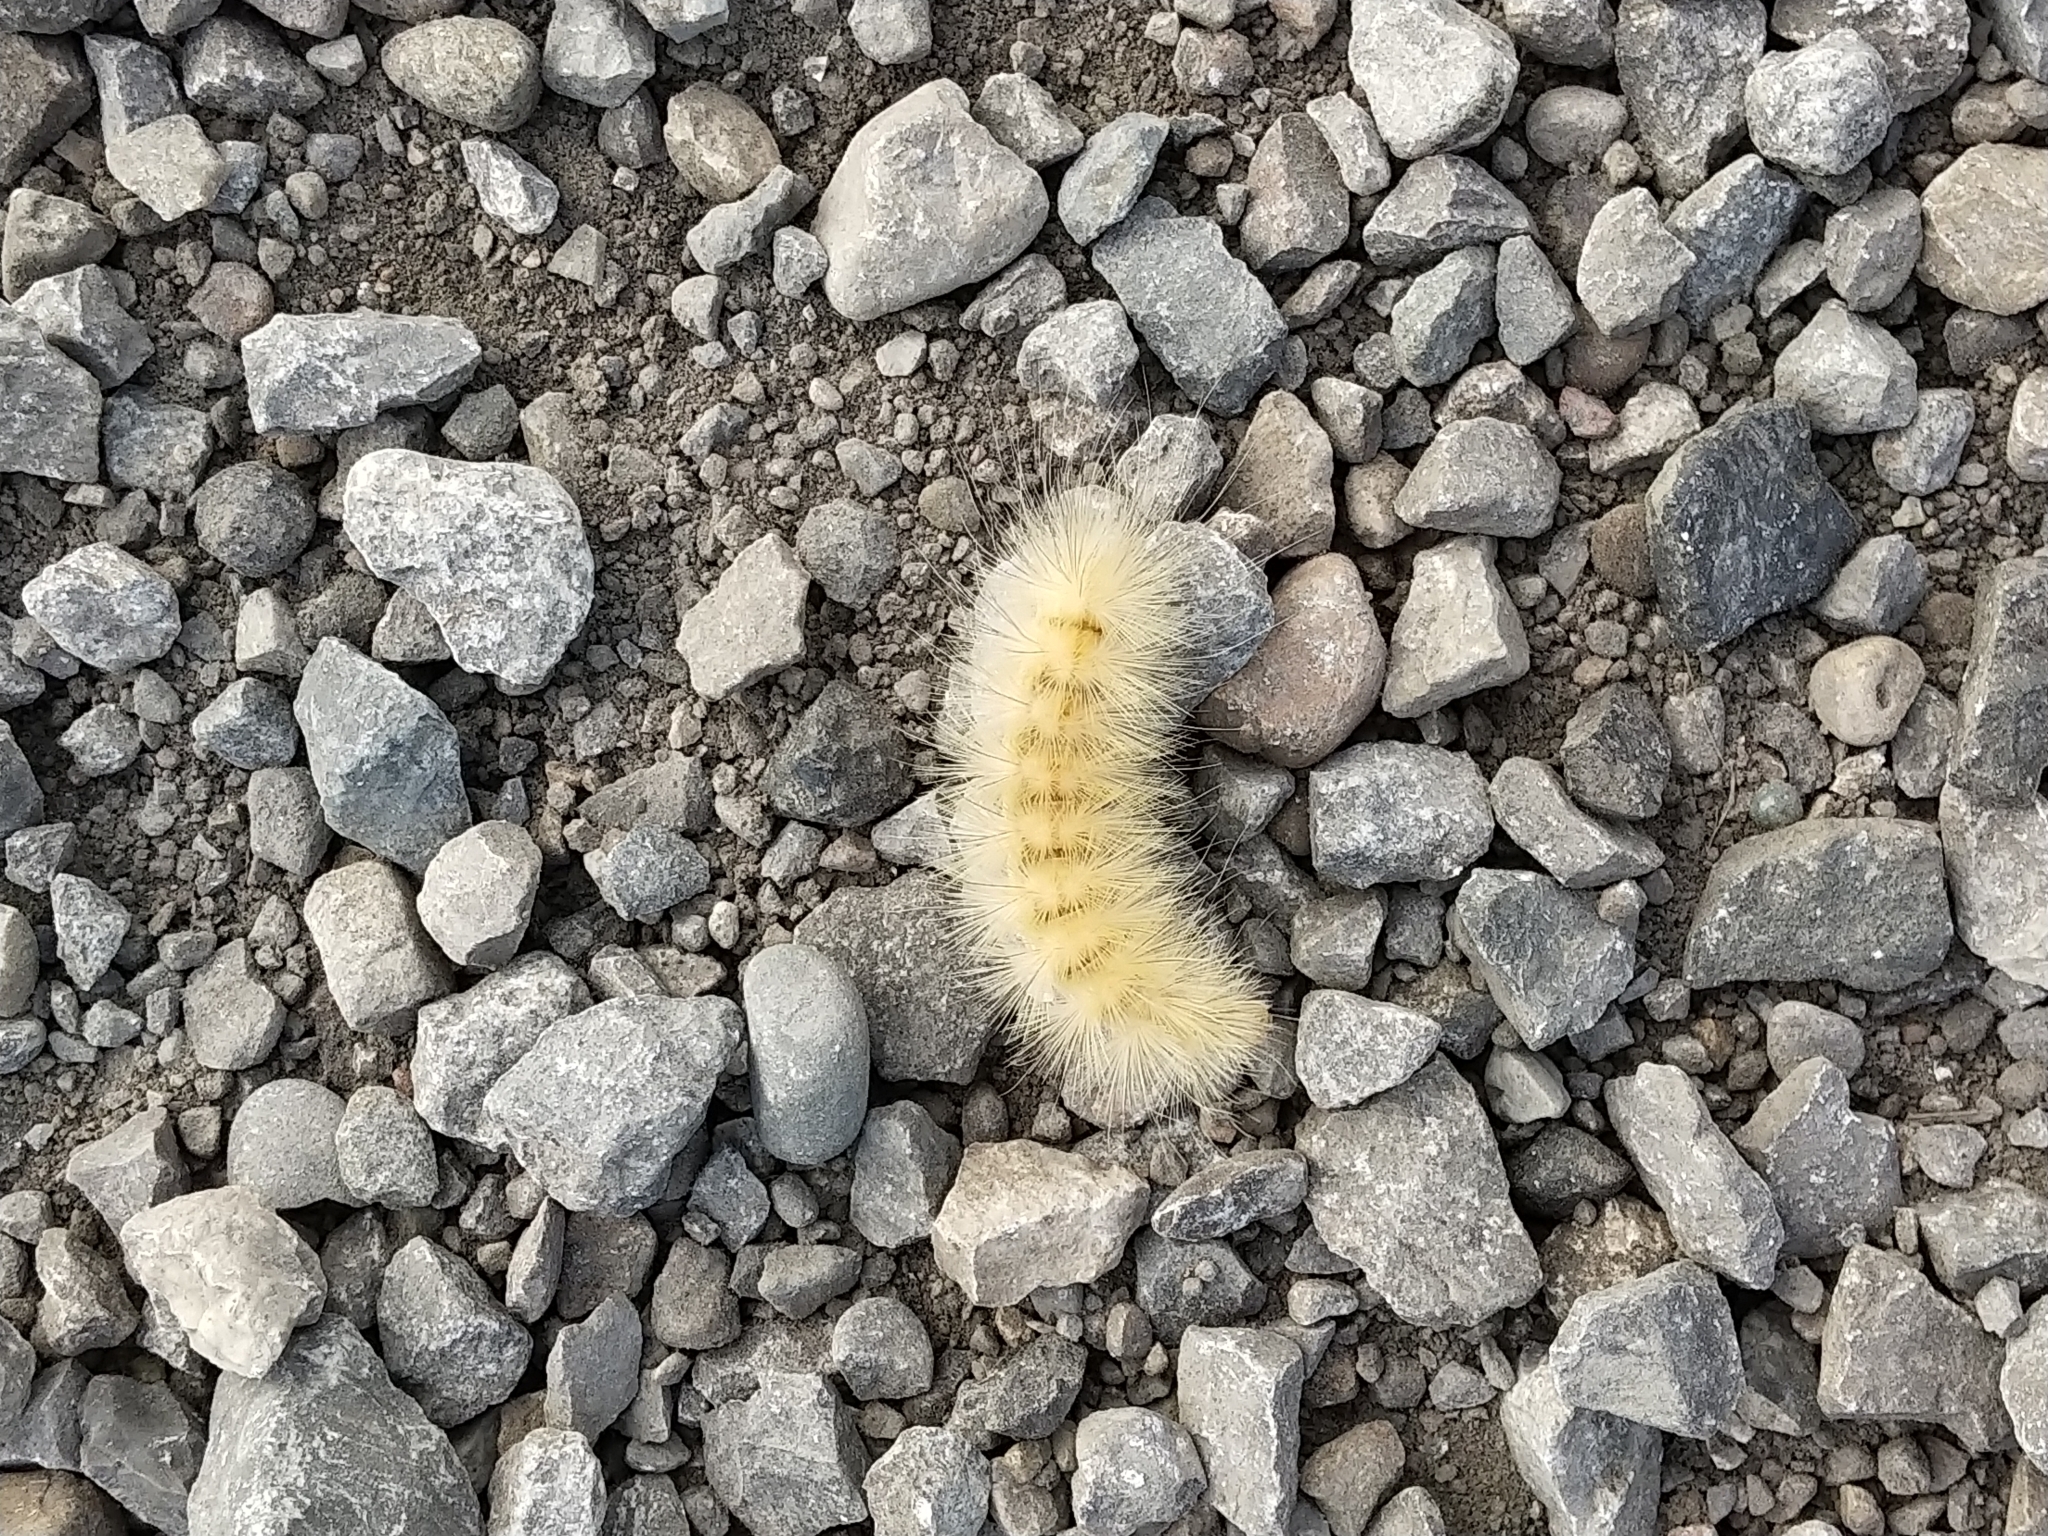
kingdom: Animalia
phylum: Arthropoda
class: Insecta
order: Lepidoptera
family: Erebidae
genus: Spilosoma
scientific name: Spilosoma virginica
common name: Virginia tiger moth
